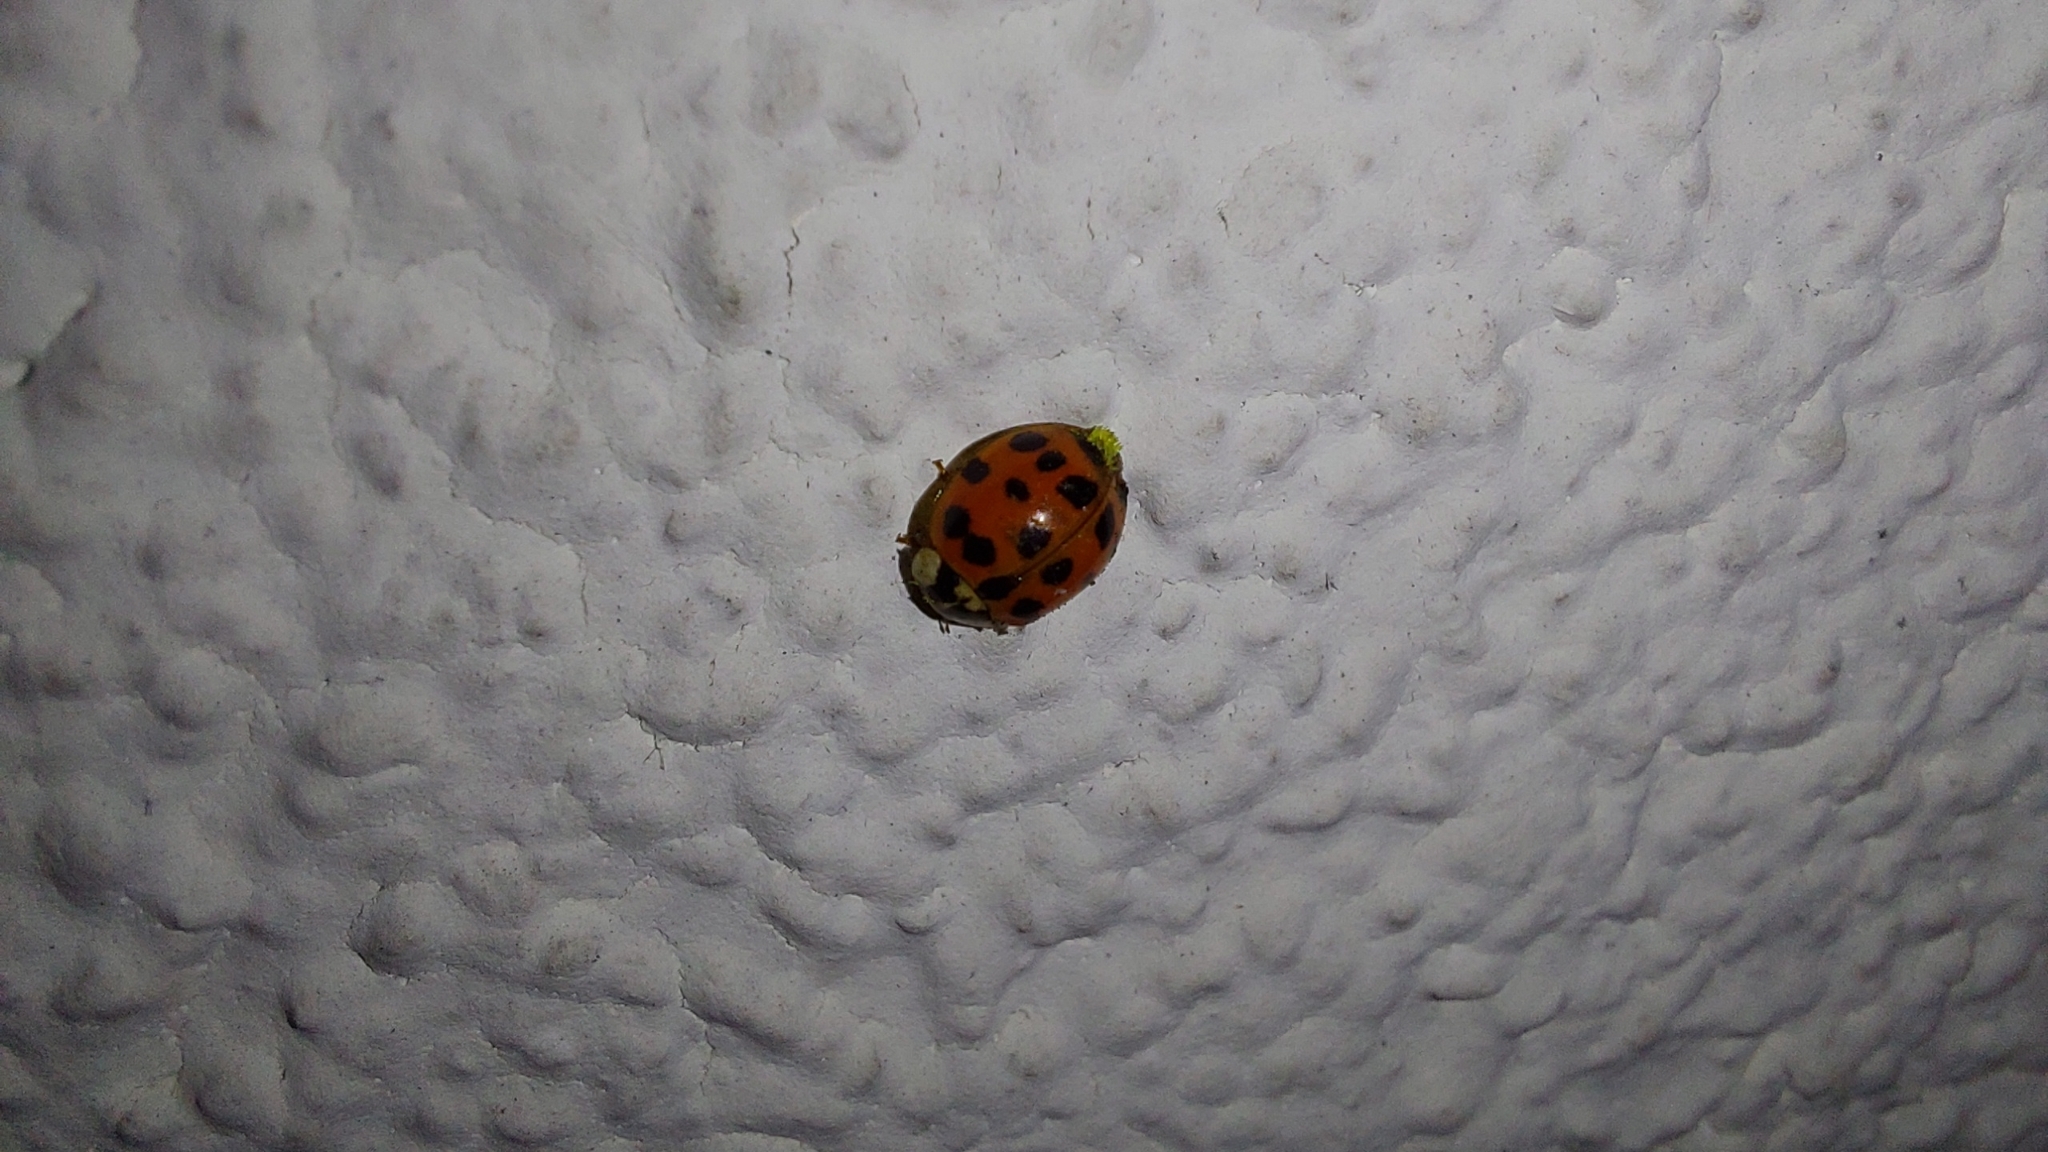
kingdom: Animalia
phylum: Arthropoda
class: Insecta
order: Coleoptera
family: Coccinellidae
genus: Harmonia
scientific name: Harmonia axyridis
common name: Harlequin ladybird
